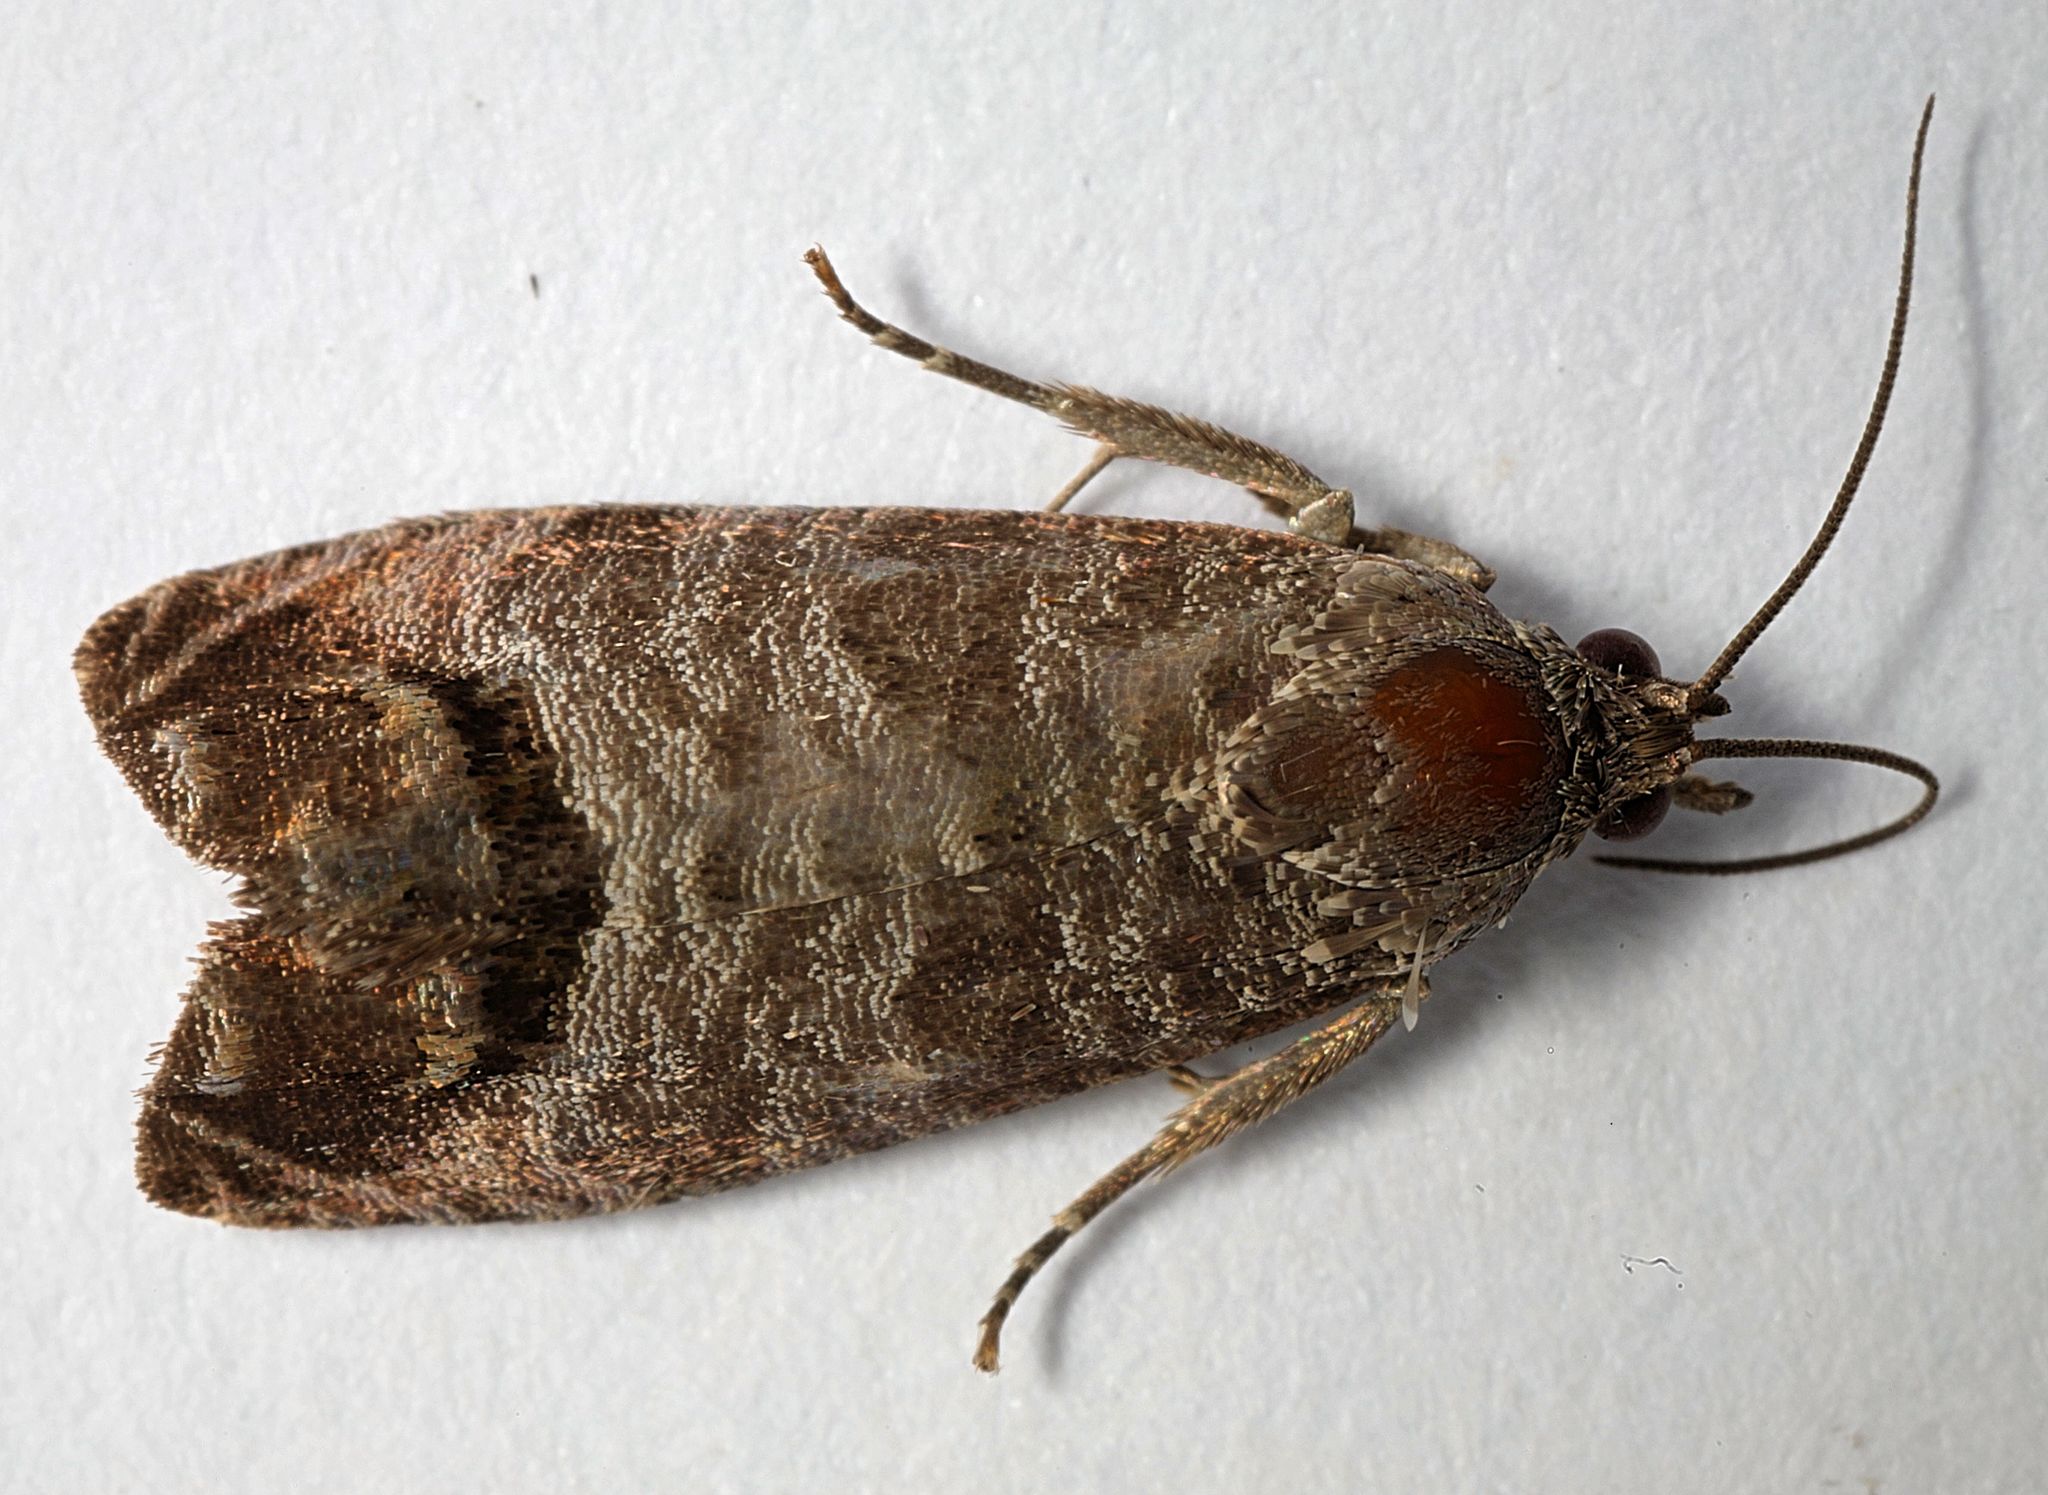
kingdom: Animalia
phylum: Arthropoda
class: Insecta
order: Lepidoptera
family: Tortricidae
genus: Cydia
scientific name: Cydia pomonella
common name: Codling moth
